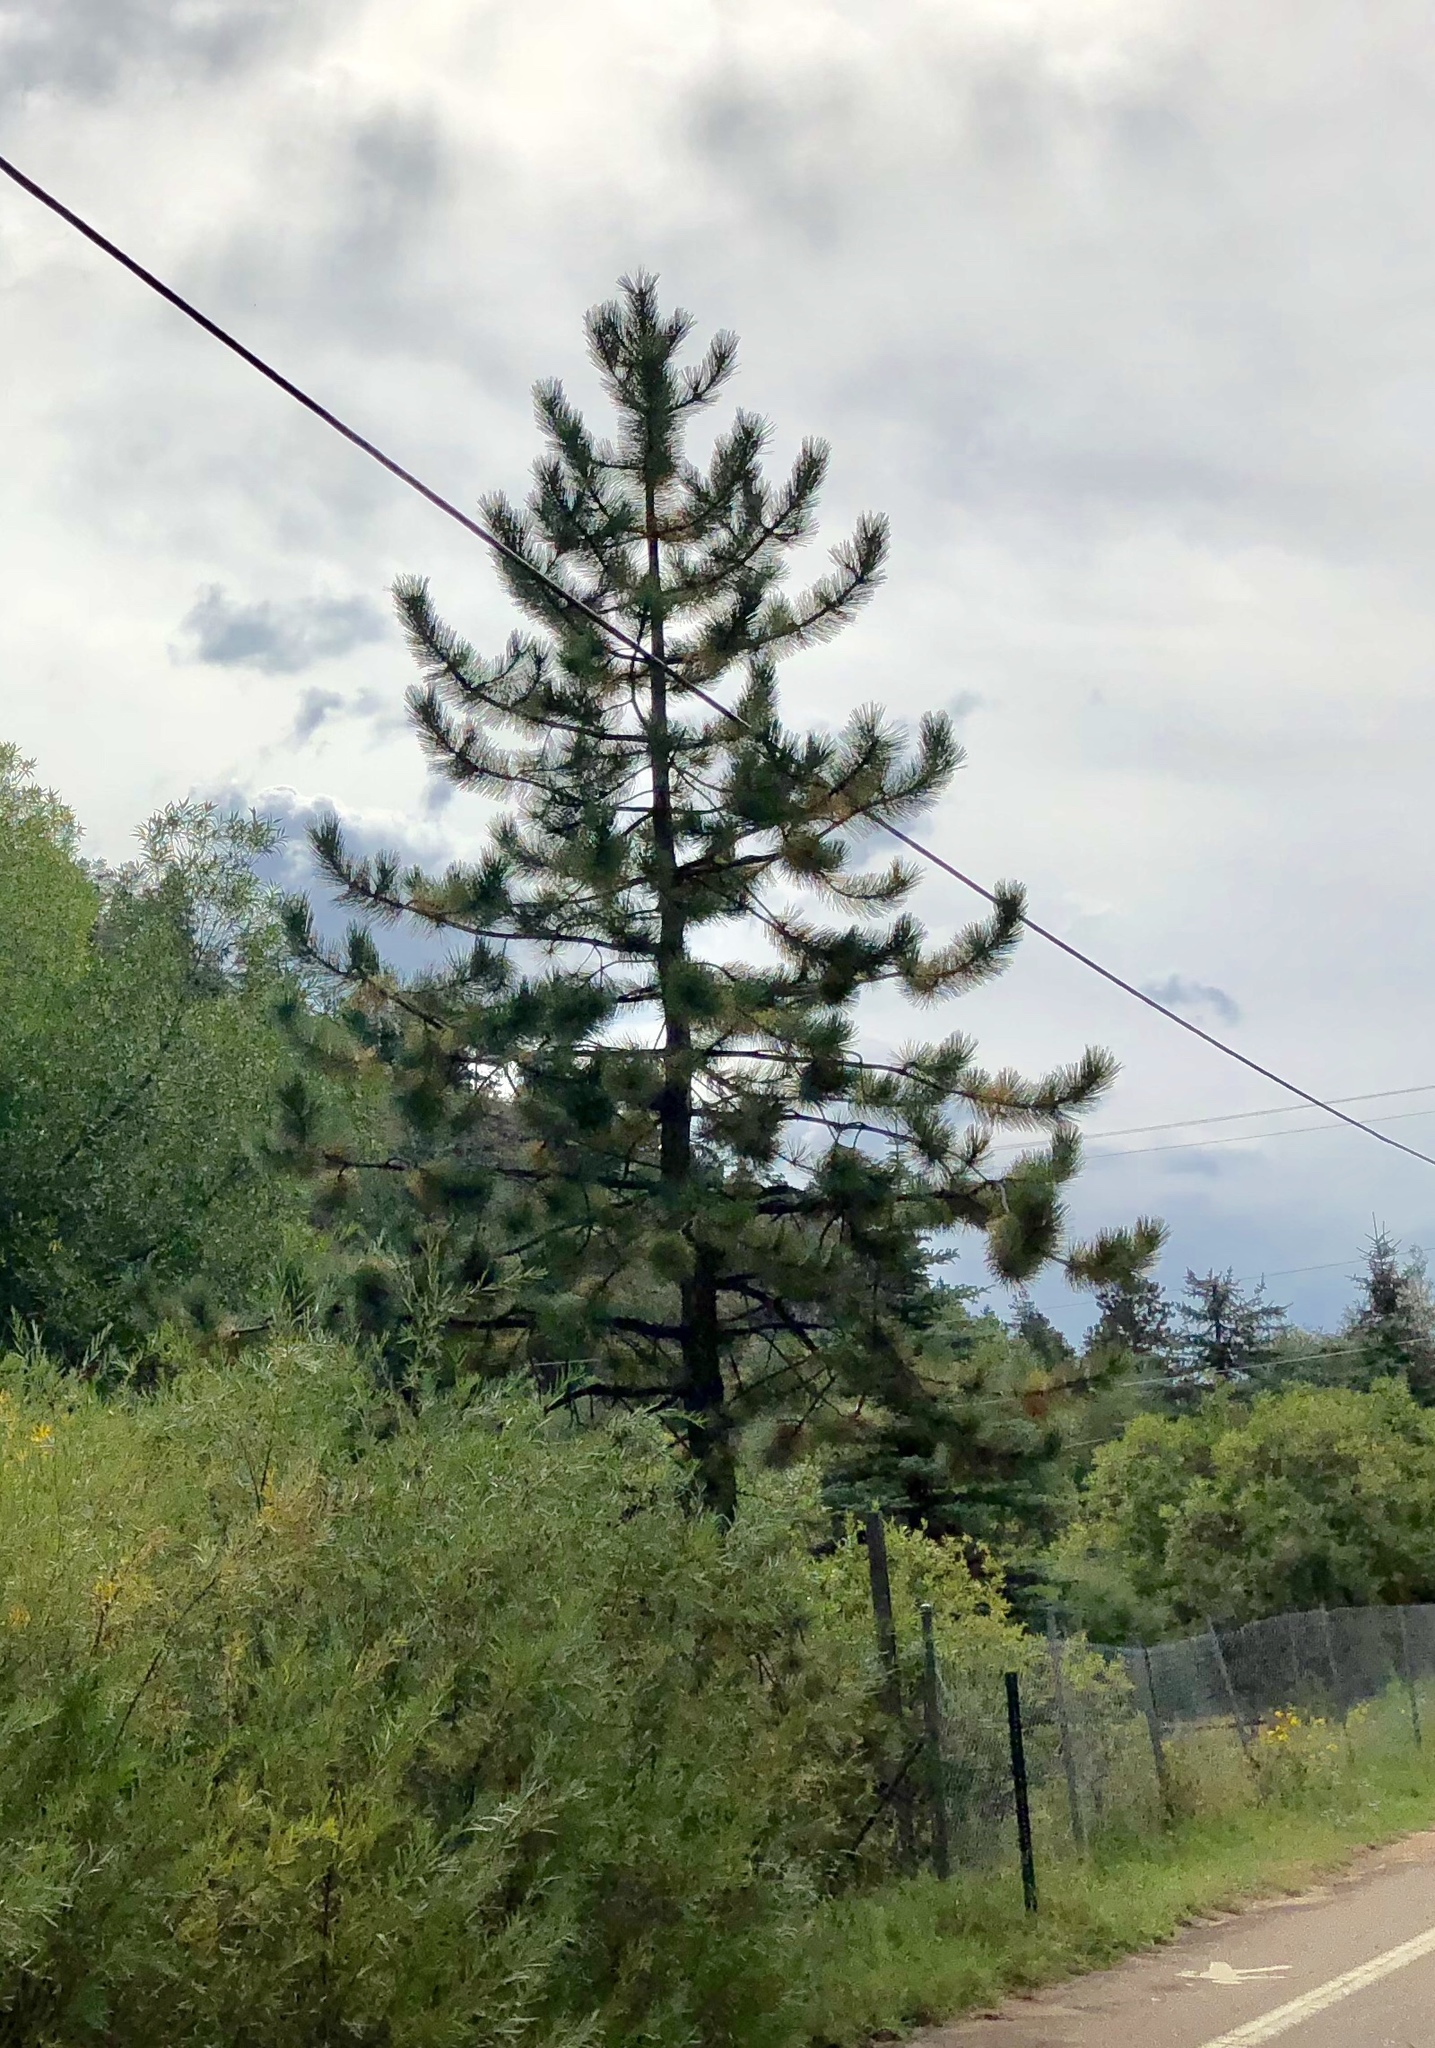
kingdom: Plantae
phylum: Tracheophyta
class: Pinopsida
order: Pinales
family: Pinaceae
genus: Pinus
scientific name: Pinus ponderosa
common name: Western yellow-pine
